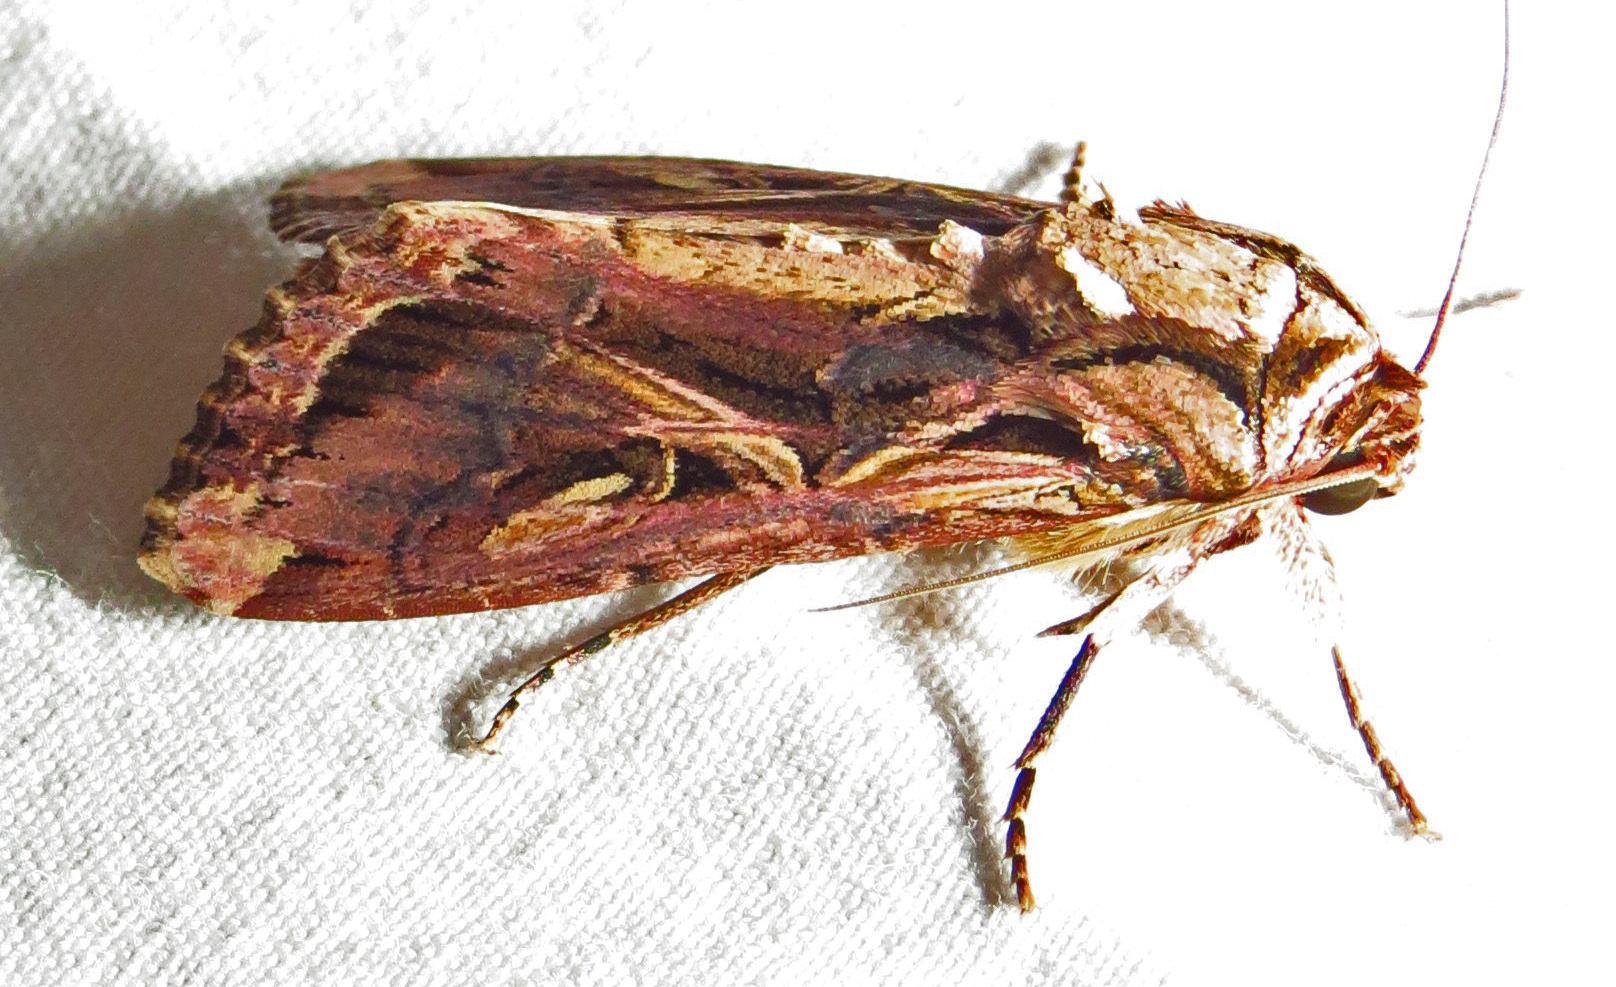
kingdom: Animalia
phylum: Arthropoda
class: Insecta
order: Lepidoptera
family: Noctuidae
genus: Spodoptera
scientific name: Spodoptera ornithogalli
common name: Yellow-striped armyworm
